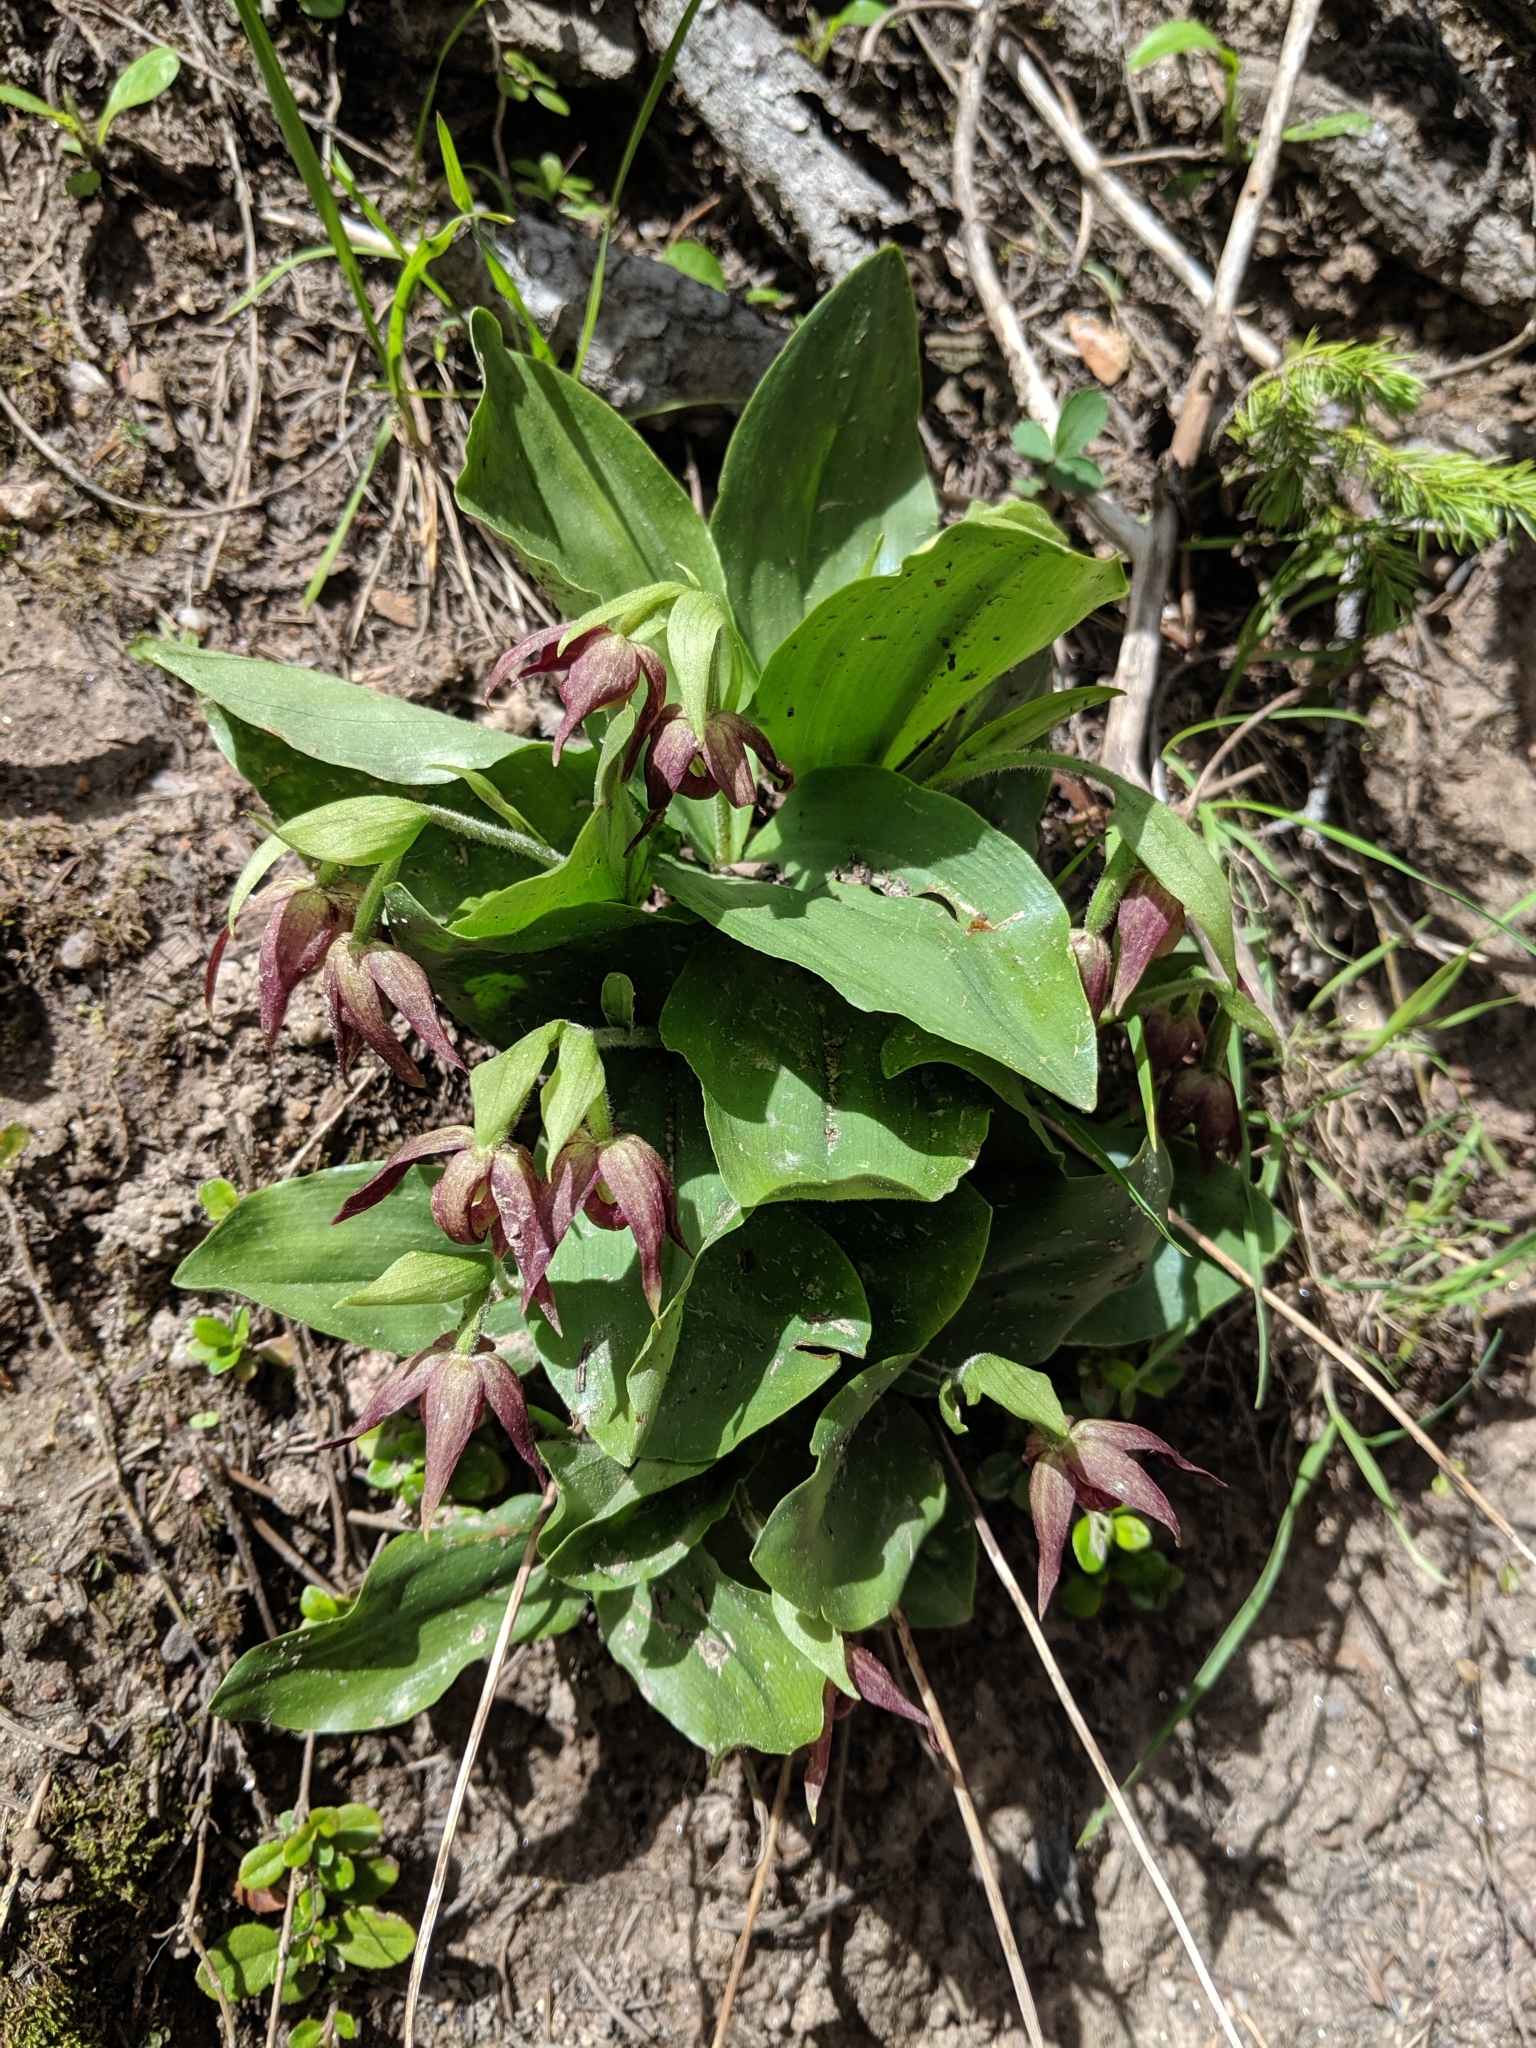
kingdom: Plantae
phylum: Tracheophyta
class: Liliopsida
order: Asparagales
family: Orchidaceae
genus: Cypripedium
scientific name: Cypripedium fasciculatum
